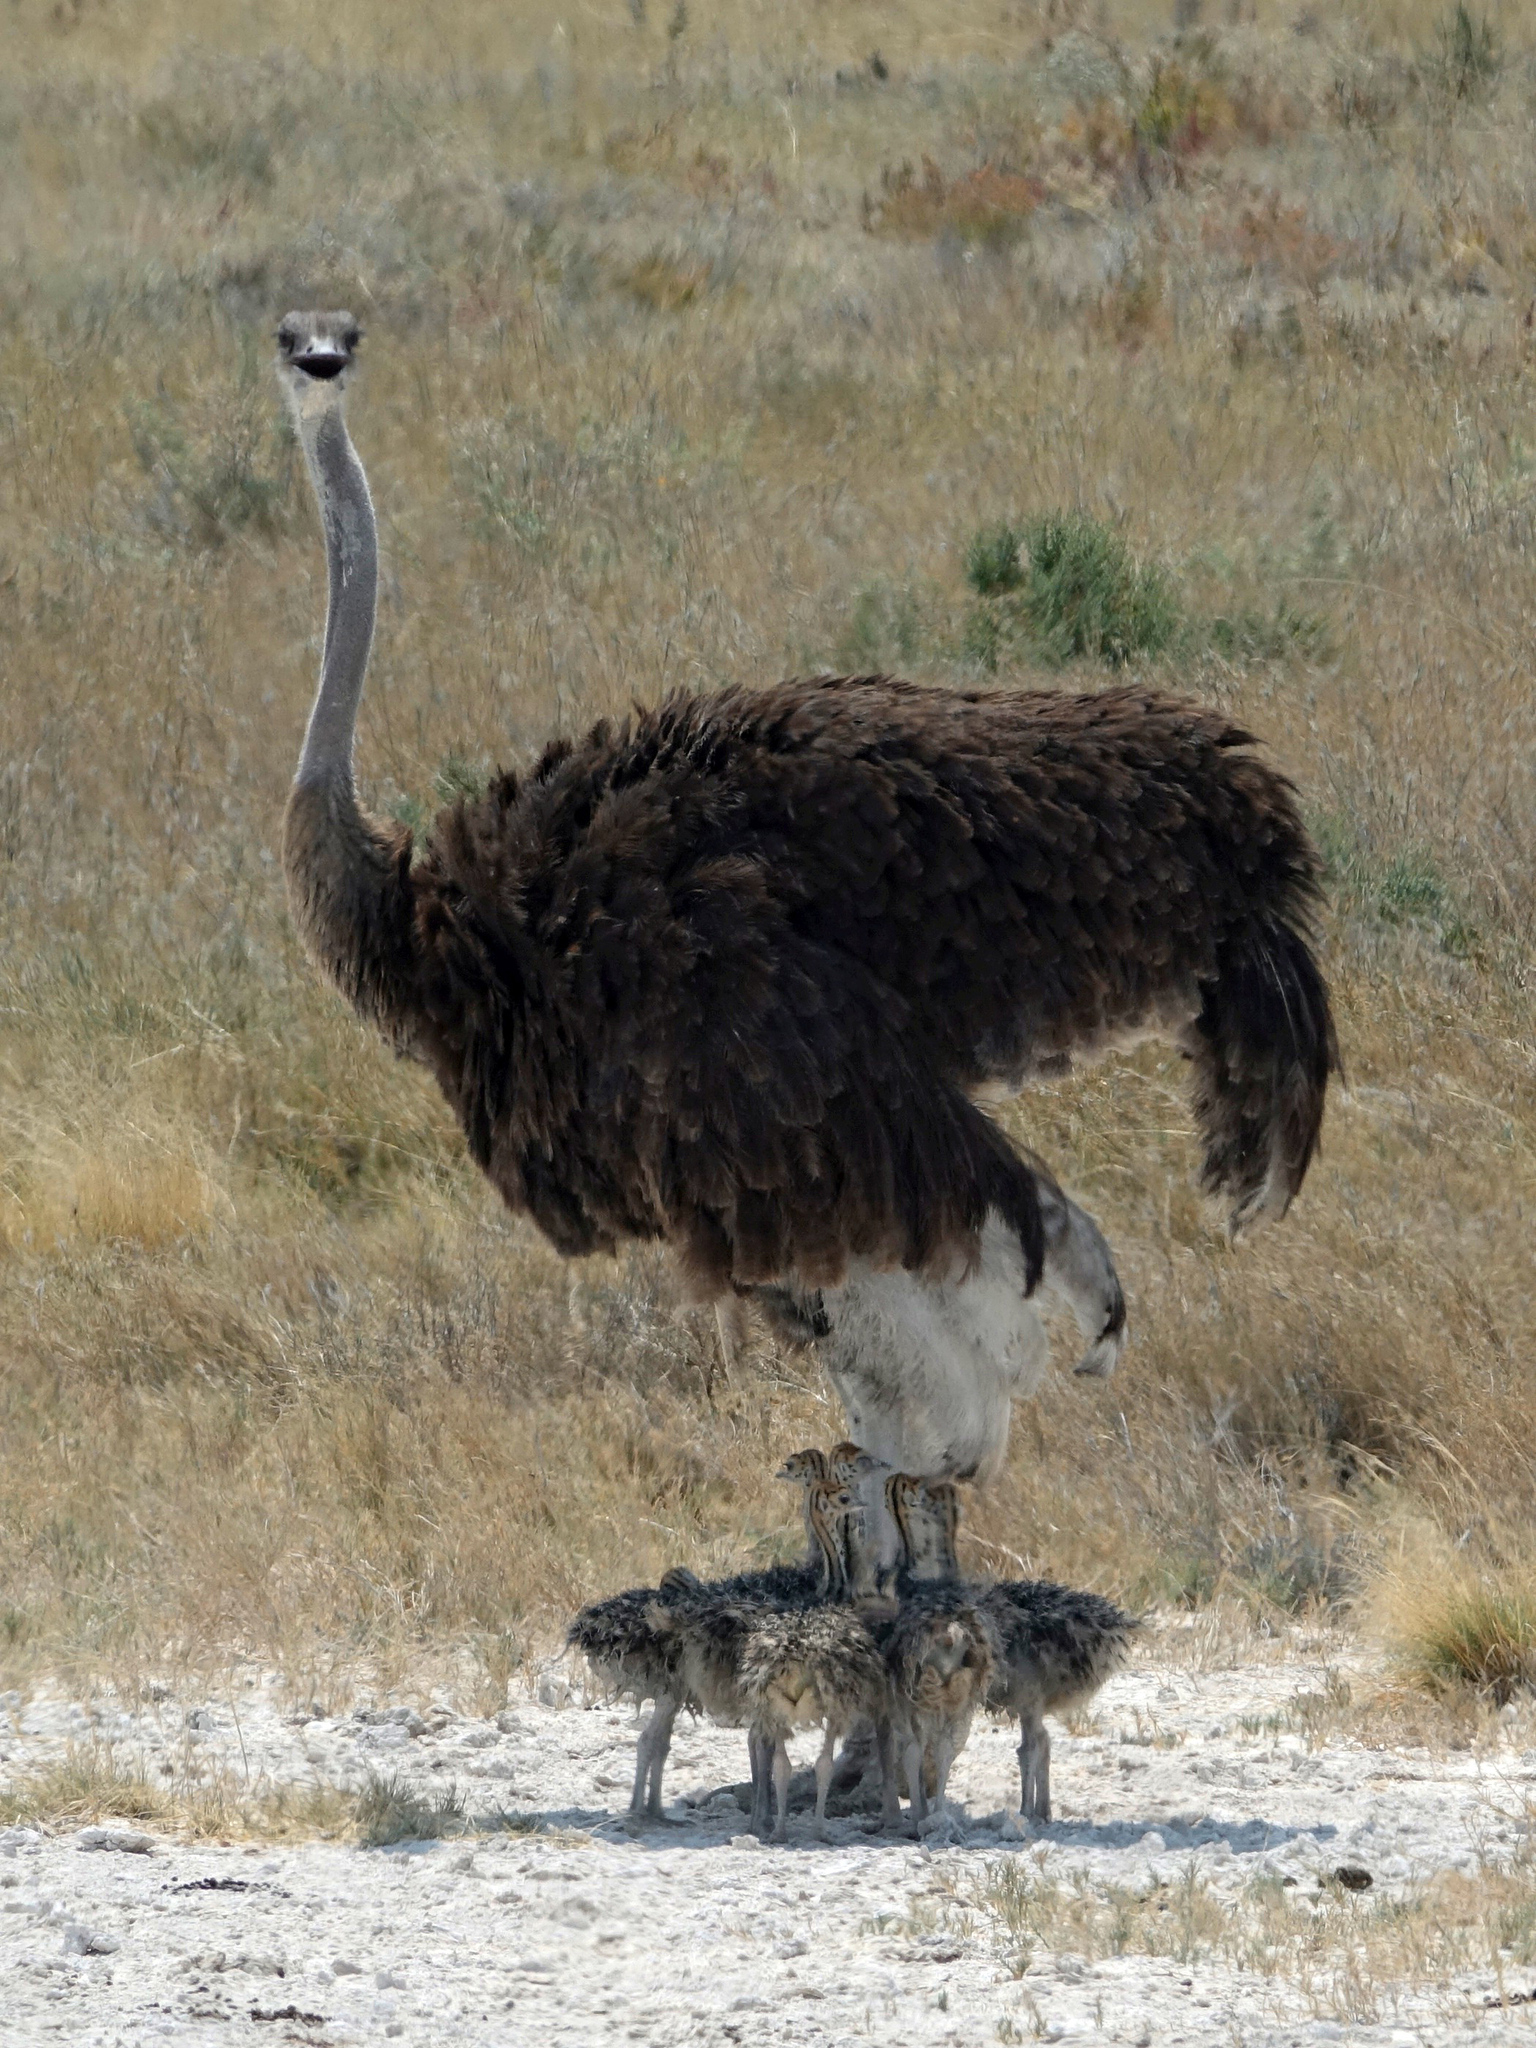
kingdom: Animalia
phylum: Chordata
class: Aves
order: Struthioniformes
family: Struthionidae
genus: Struthio
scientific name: Struthio camelus
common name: Common ostrich
